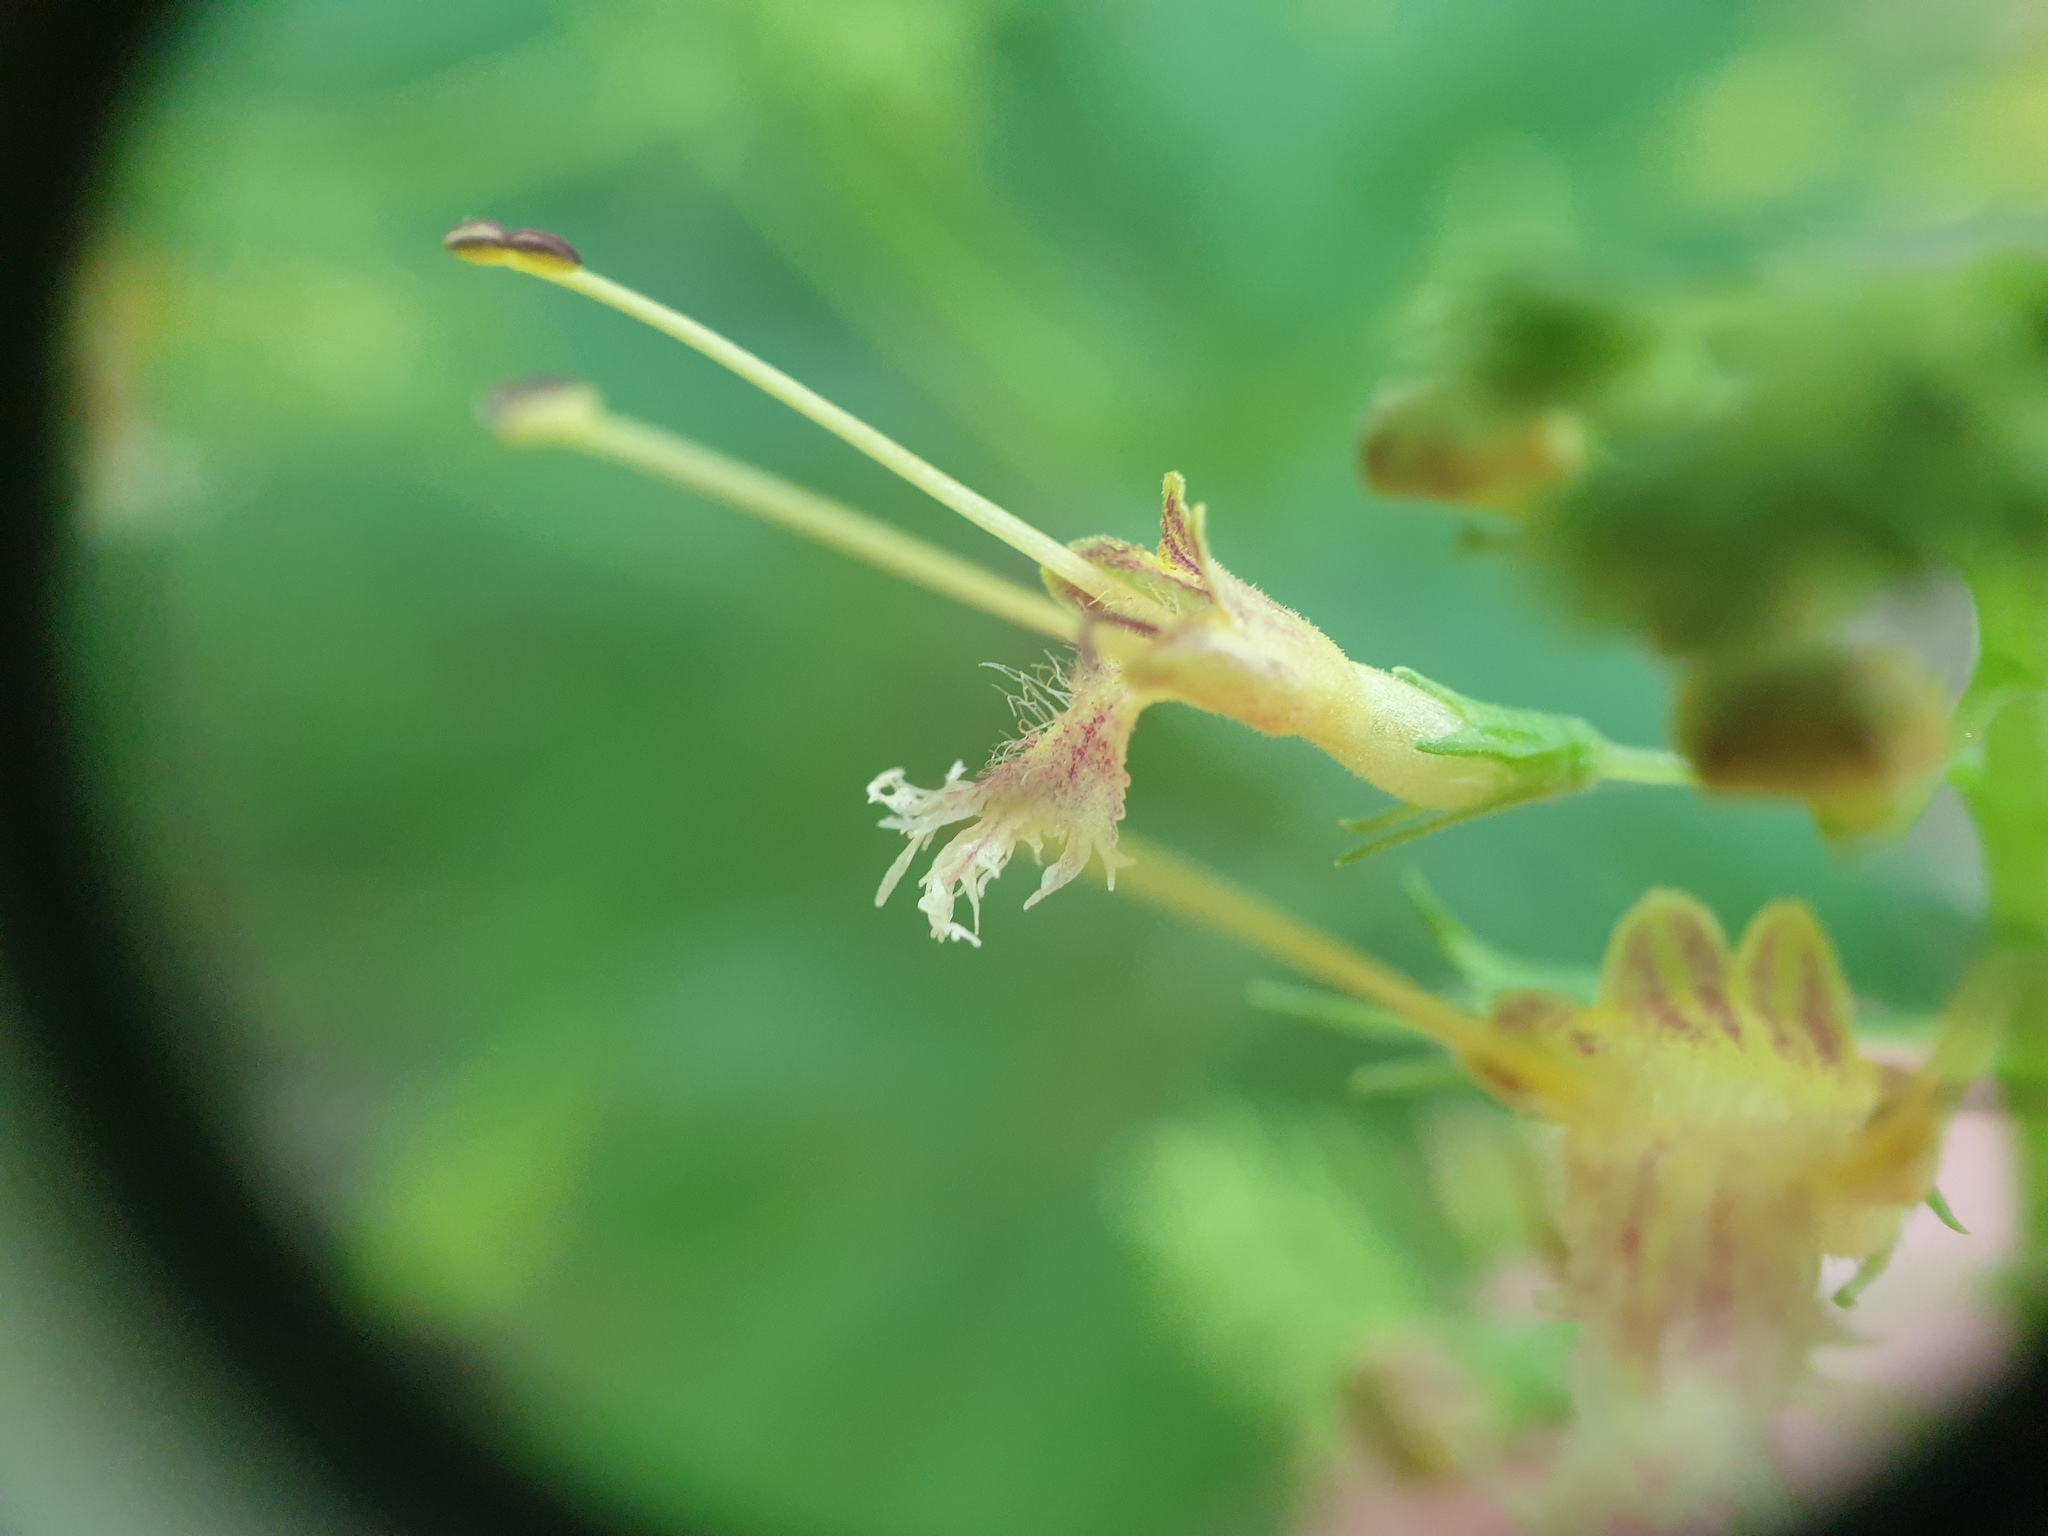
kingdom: Plantae
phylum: Tracheophyta
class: Magnoliopsida
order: Lamiales
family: Lamiaceae
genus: Collinsonia
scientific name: Collinsonia canadensis
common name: Northern horsebalm
